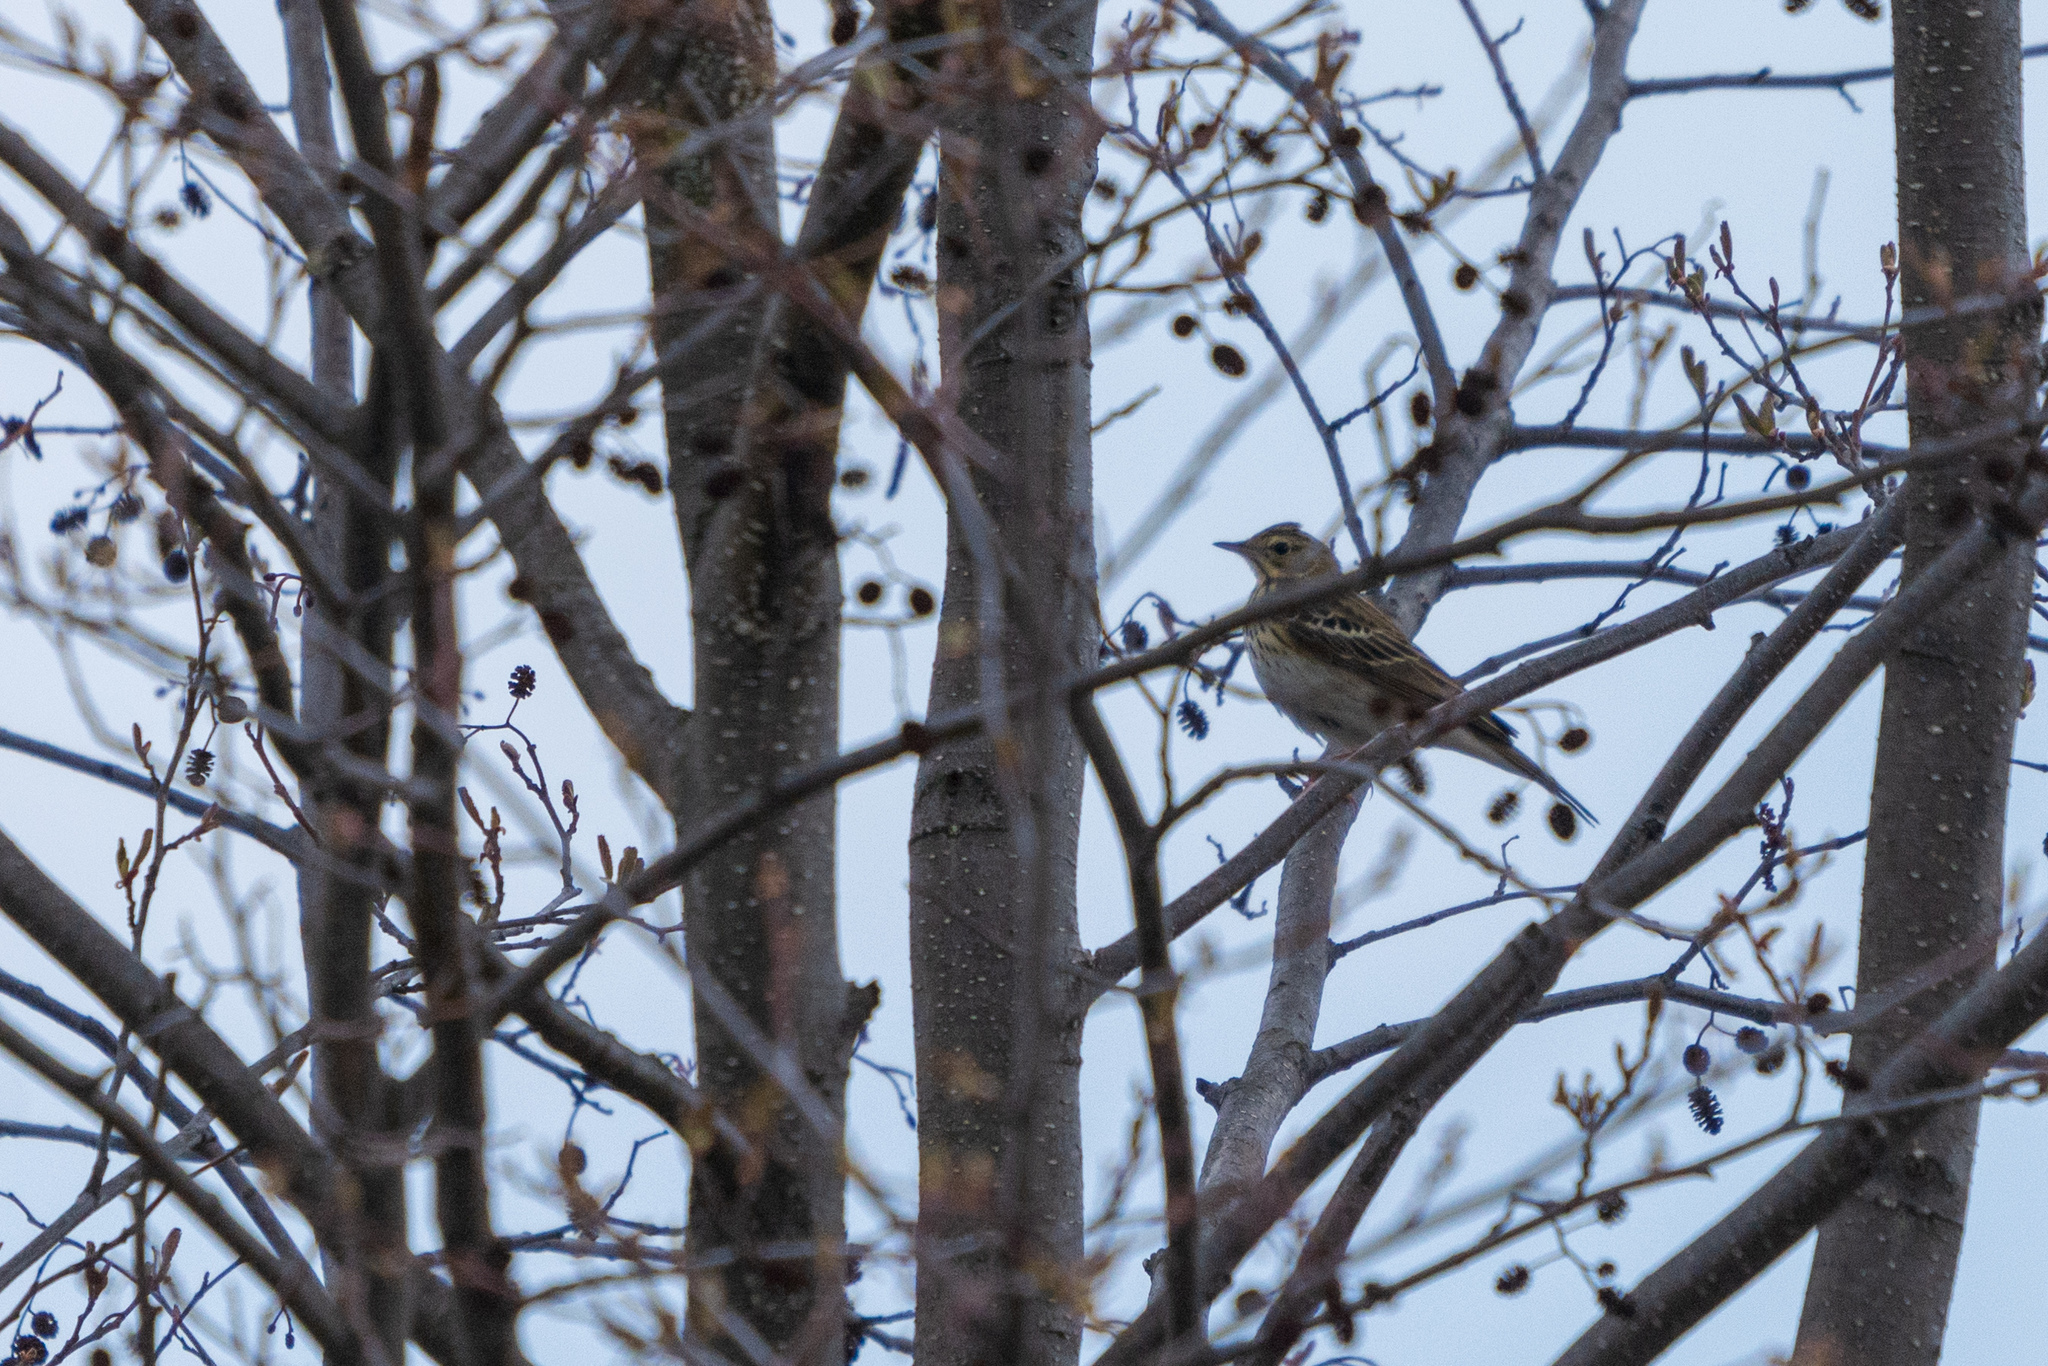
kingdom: Animalia
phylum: Chordata
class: Aves
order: Passeriformes
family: Motacillidae
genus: Anthus
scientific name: Anthus trivialis
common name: Tree pipit
